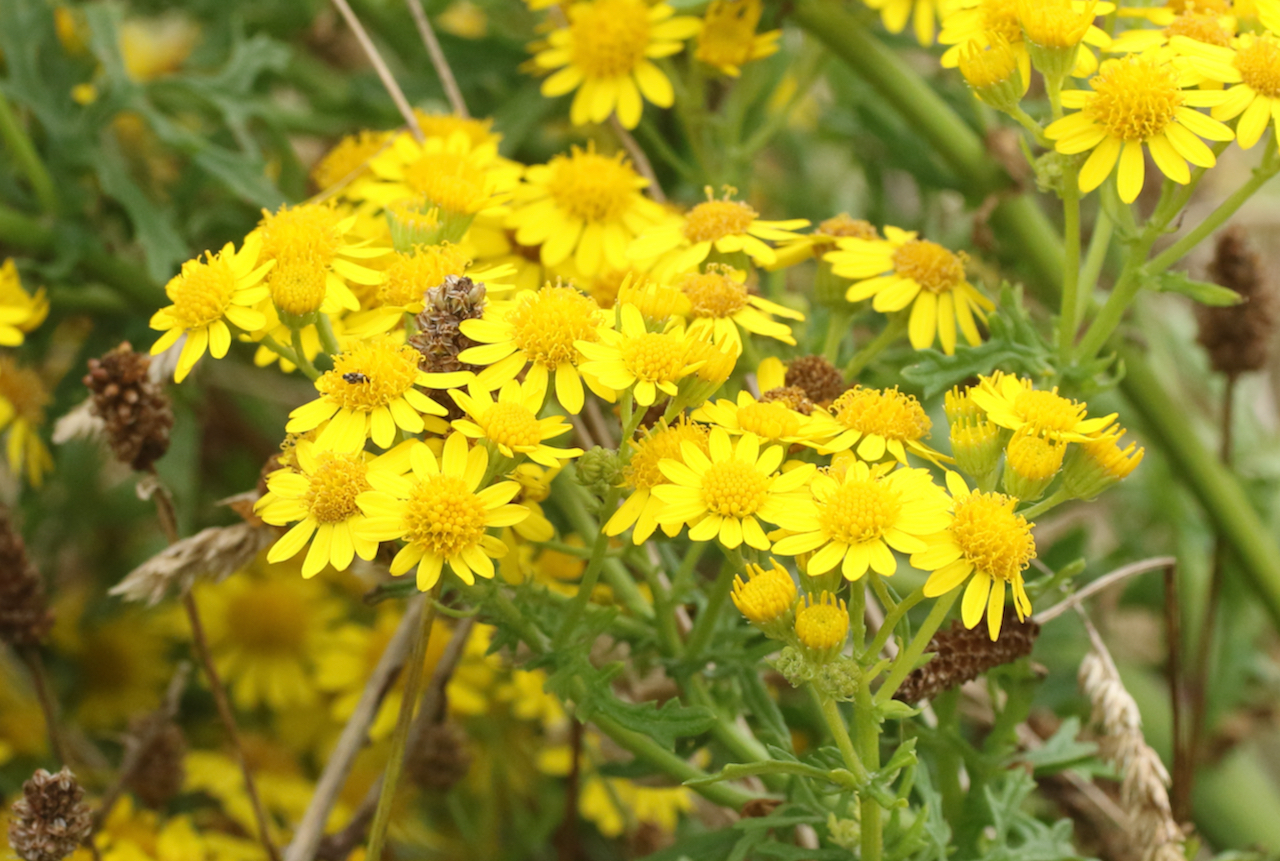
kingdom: Plantae
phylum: Tracheophyta
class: Magnoliopsida
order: Asterales
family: Asteraceae
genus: Jacobaea
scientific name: Jacobaea vulgaris
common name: Stinking willie
